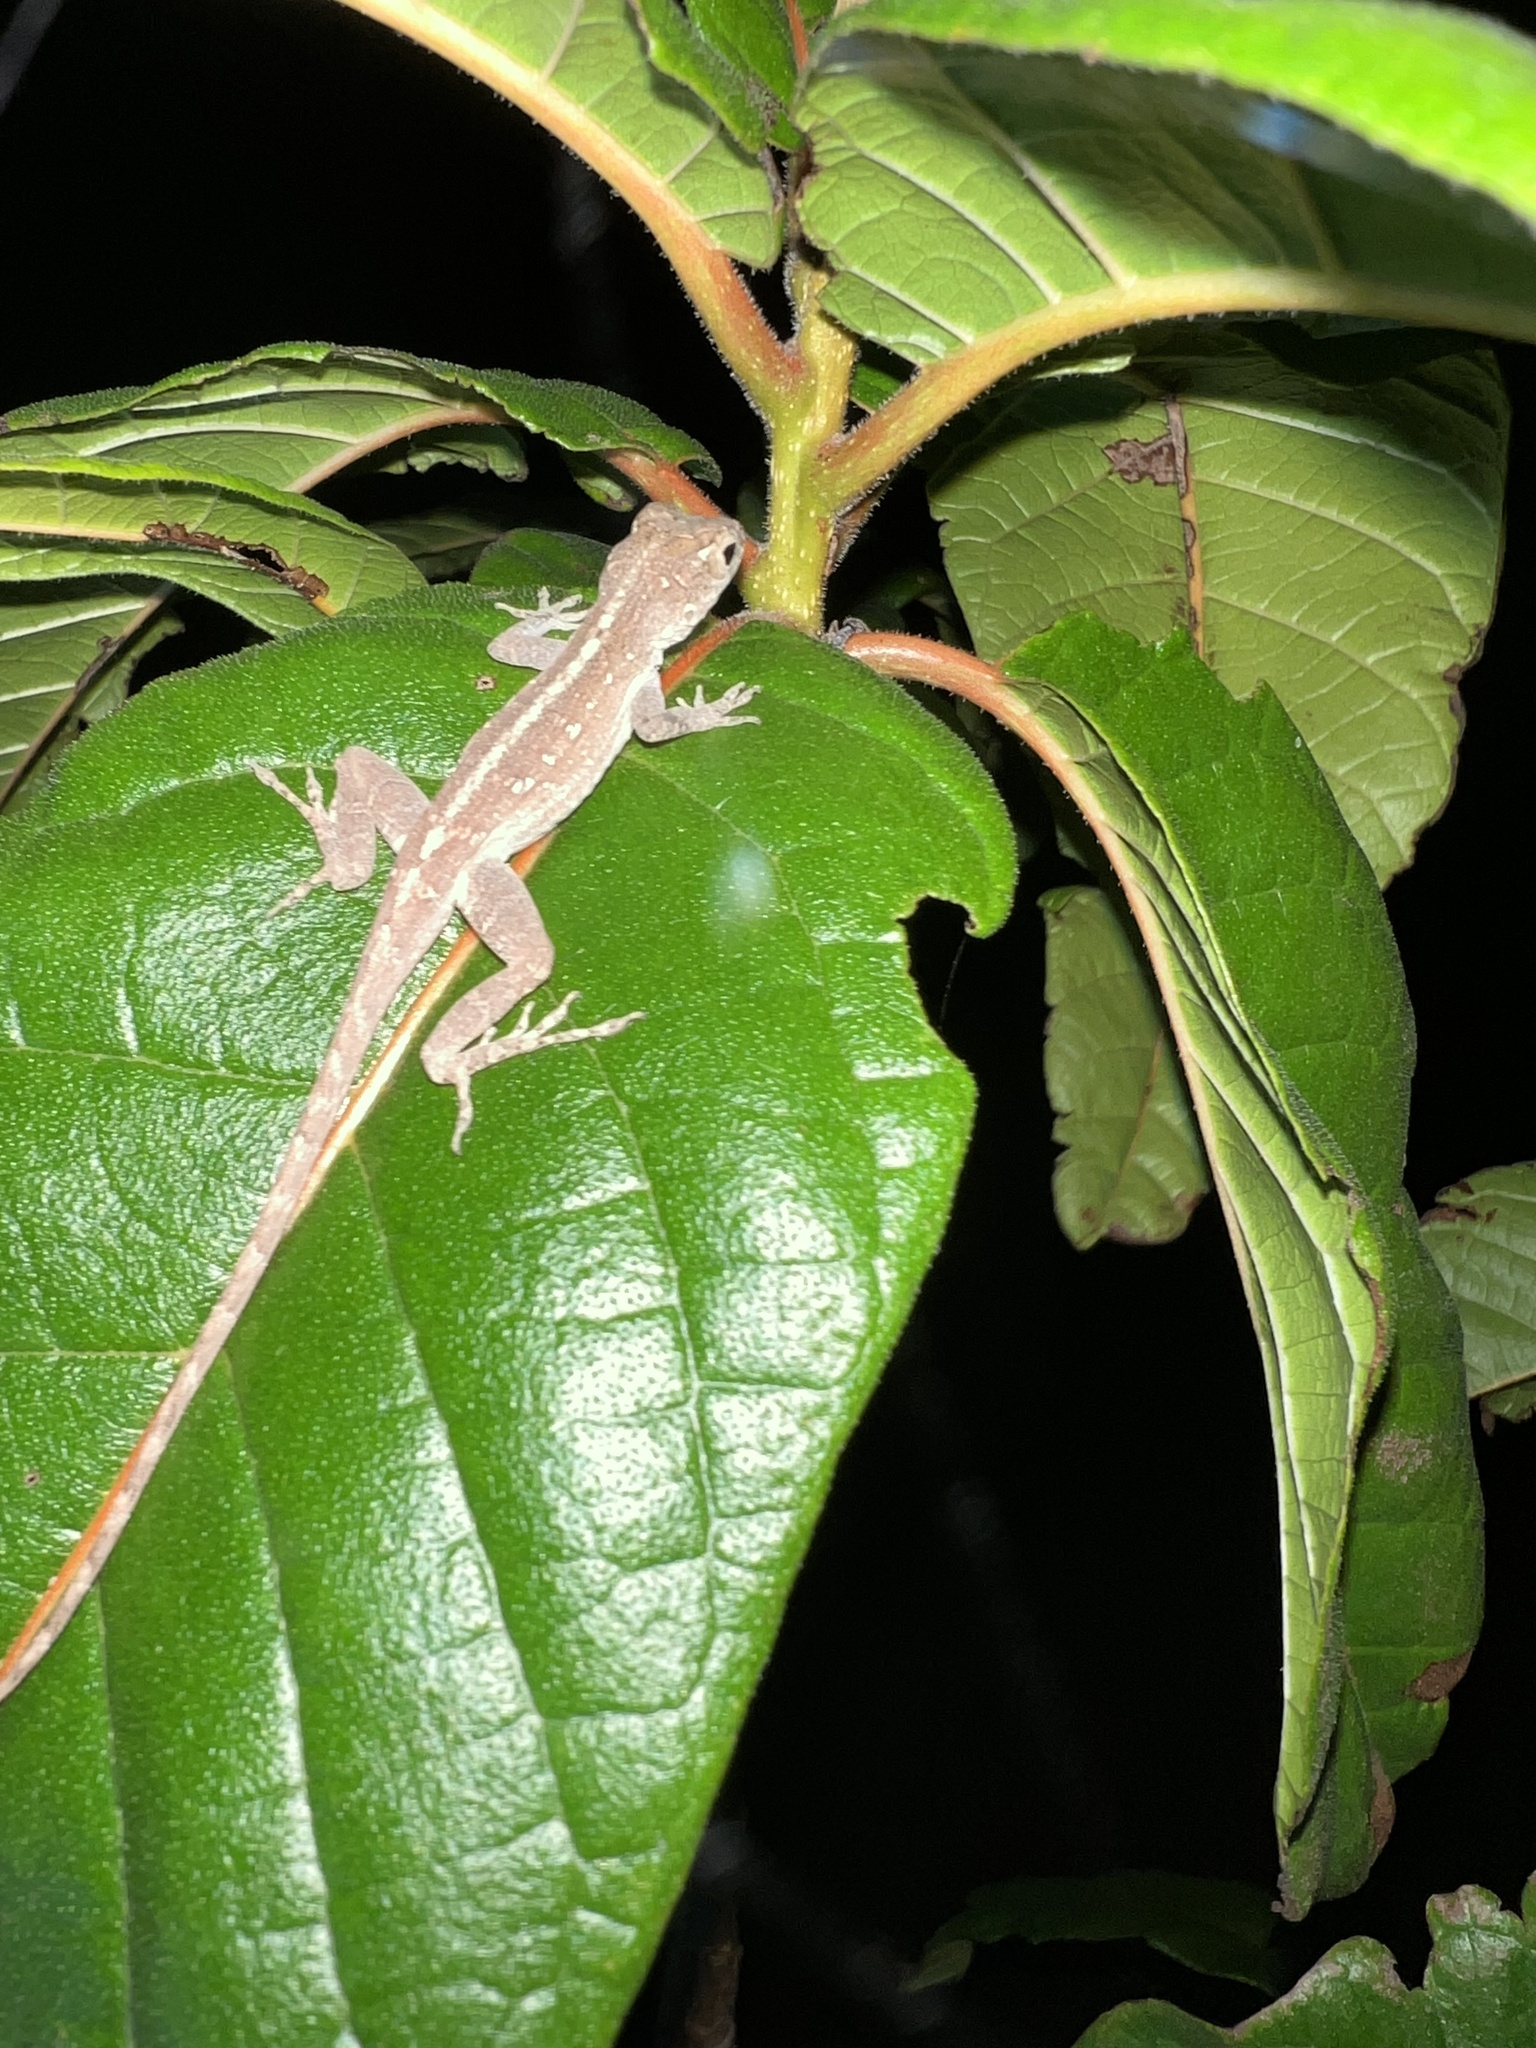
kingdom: Animalia
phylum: Chordata
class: Squamata
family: Dactyloidae
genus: Anolis
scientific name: Anolis cristatellus
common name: Crested anole
